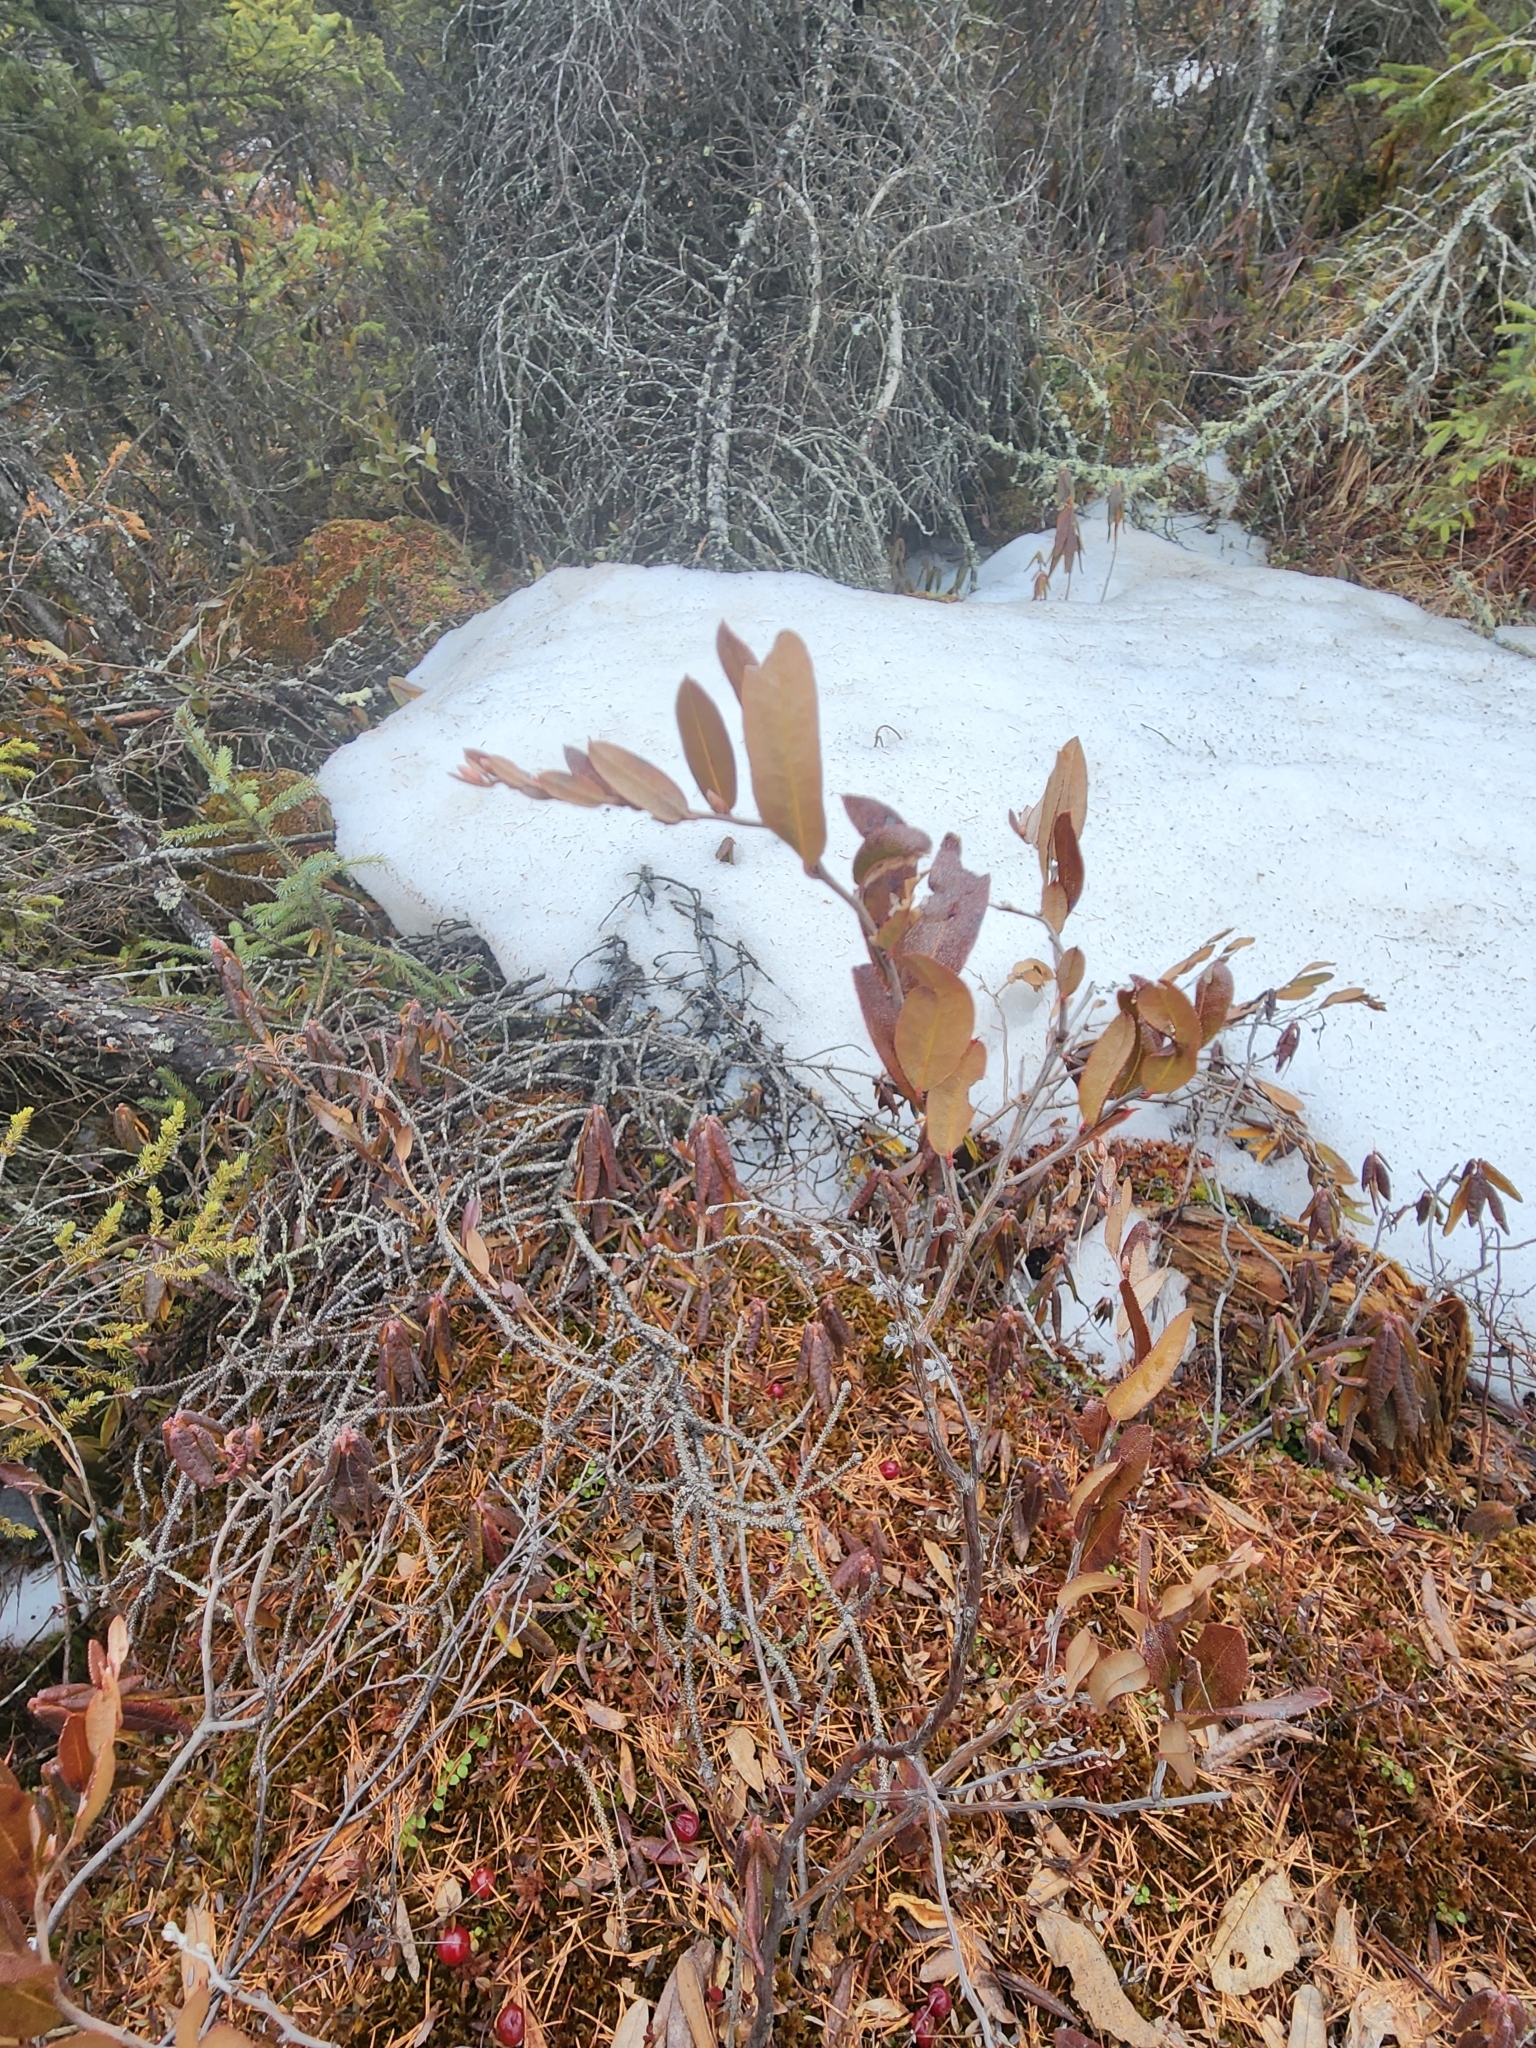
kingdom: Plantae
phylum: Tracheophyta
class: Magnoliopsida
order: Ericales
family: Ericaceae
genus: Chamaedaphne
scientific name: Chamaedaphne calyculata
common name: Leatherleaf
